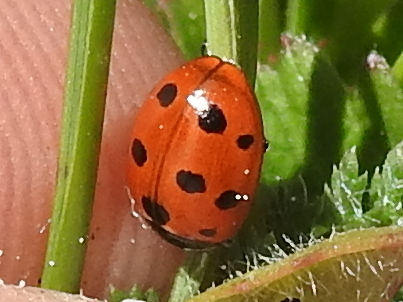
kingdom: Animalia
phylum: Arthropoda
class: Insecta
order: Coleoptera
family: Coccinellidae
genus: Coccinella
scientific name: Coccinella undecimpunctata
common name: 11-spot ladybird
